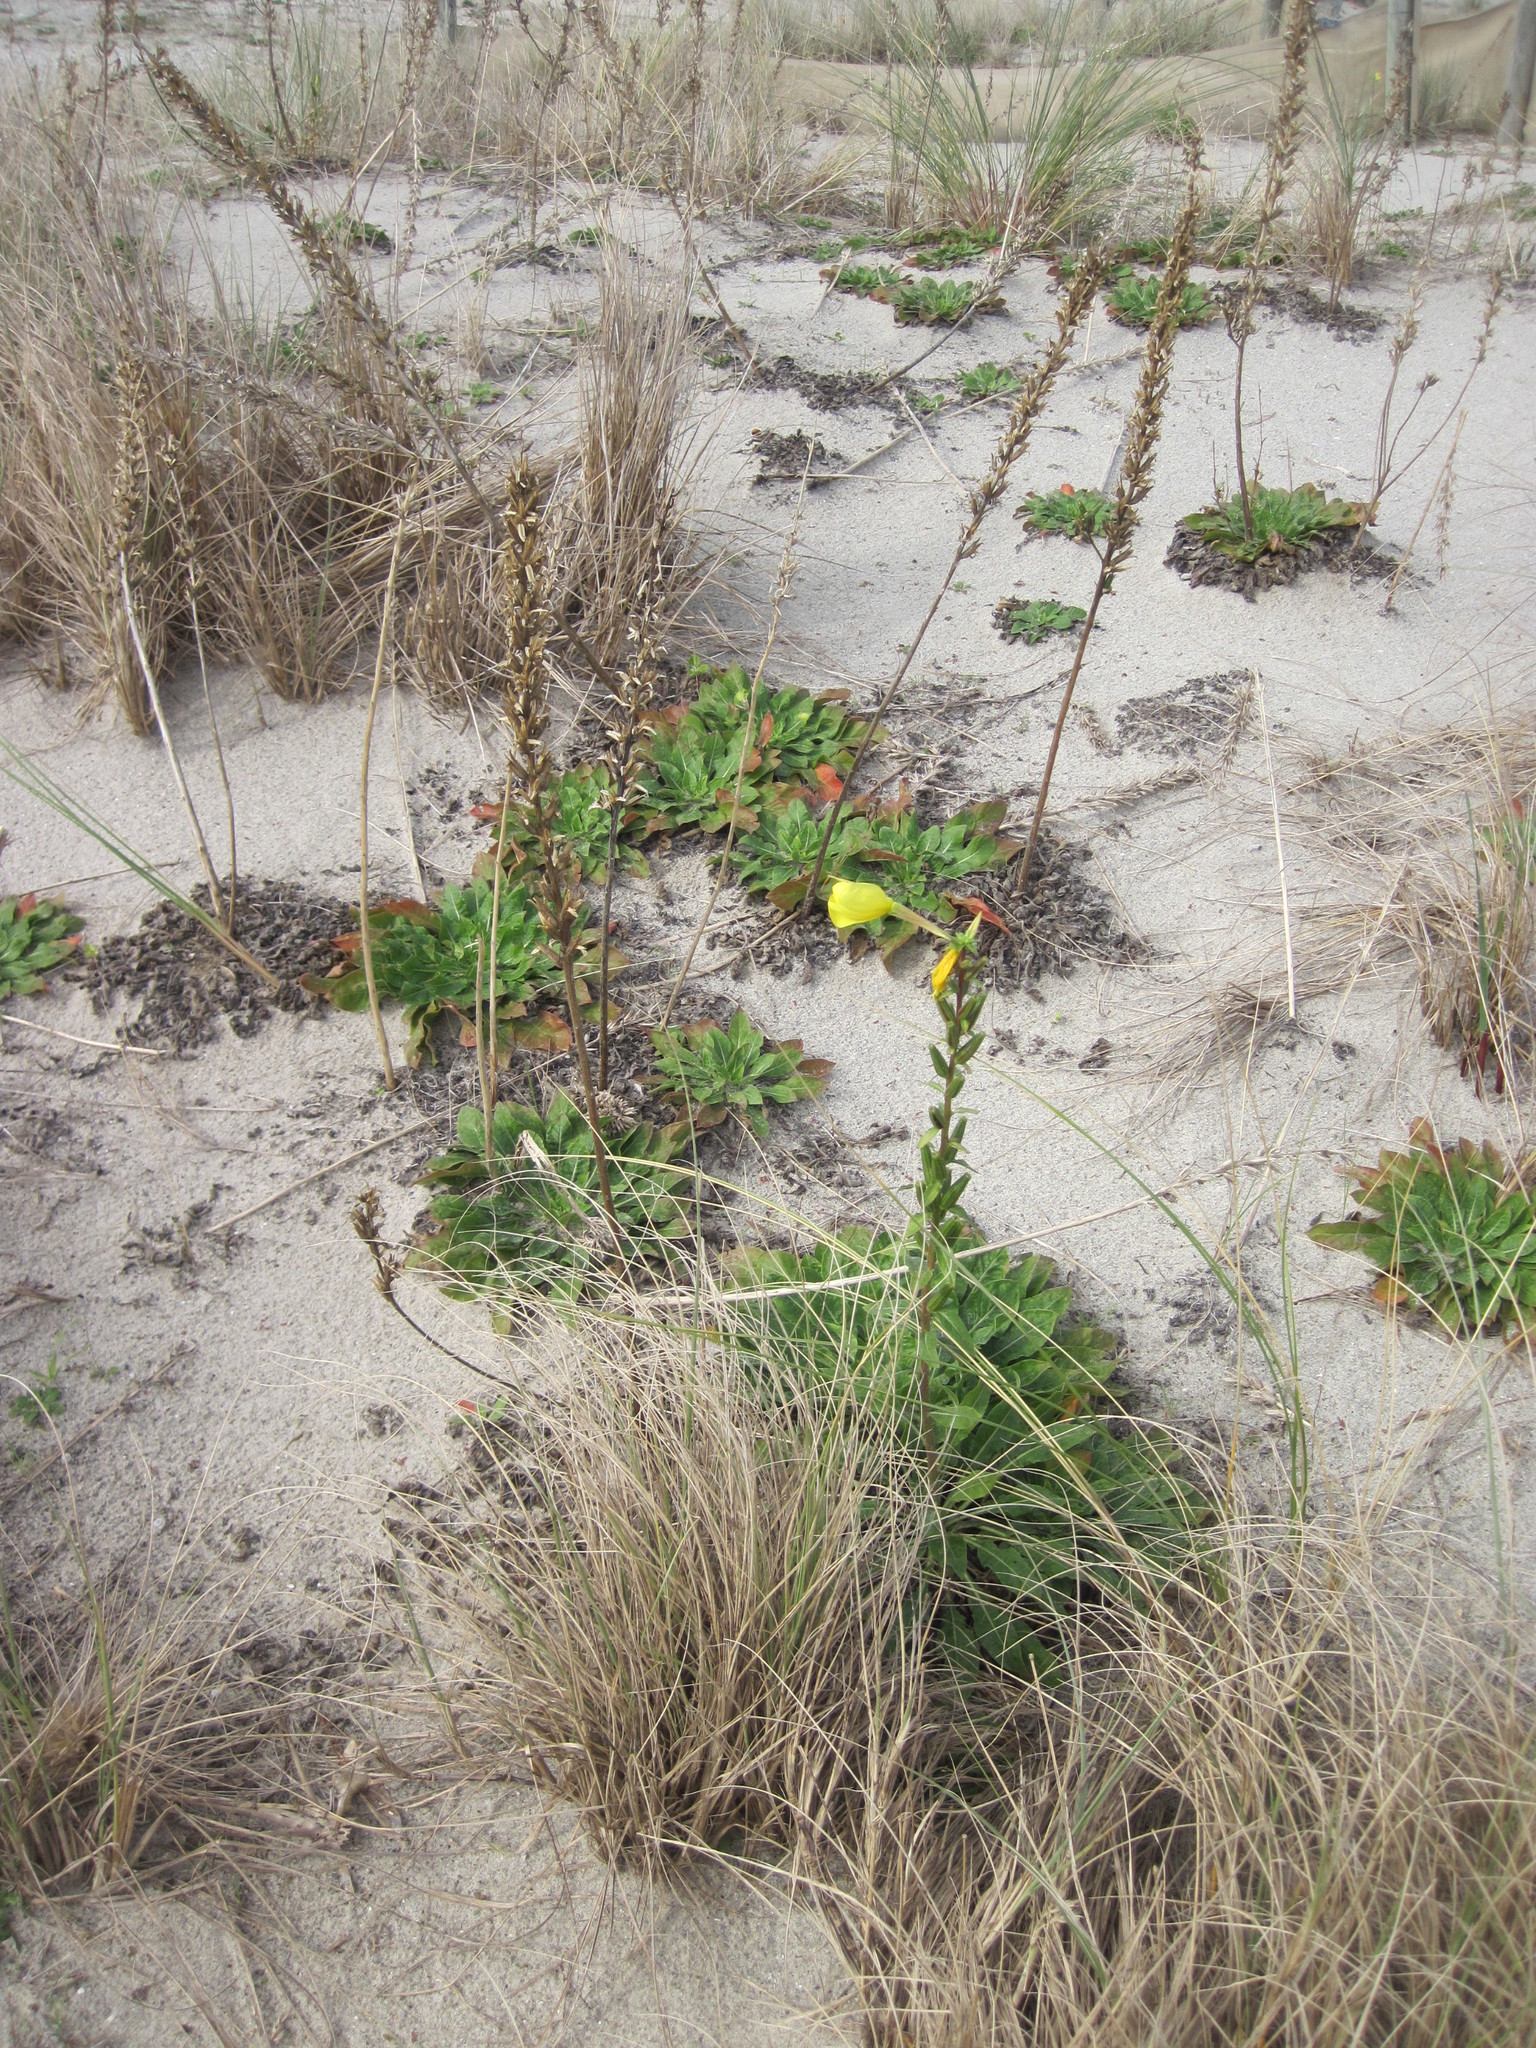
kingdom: Plantae
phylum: Tracheophyta
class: Magnoliopsida
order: Myrtales
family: Onagraceae
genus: Oenothera
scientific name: Oenothera glazioviana
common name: Large-flowered evening-primrose
